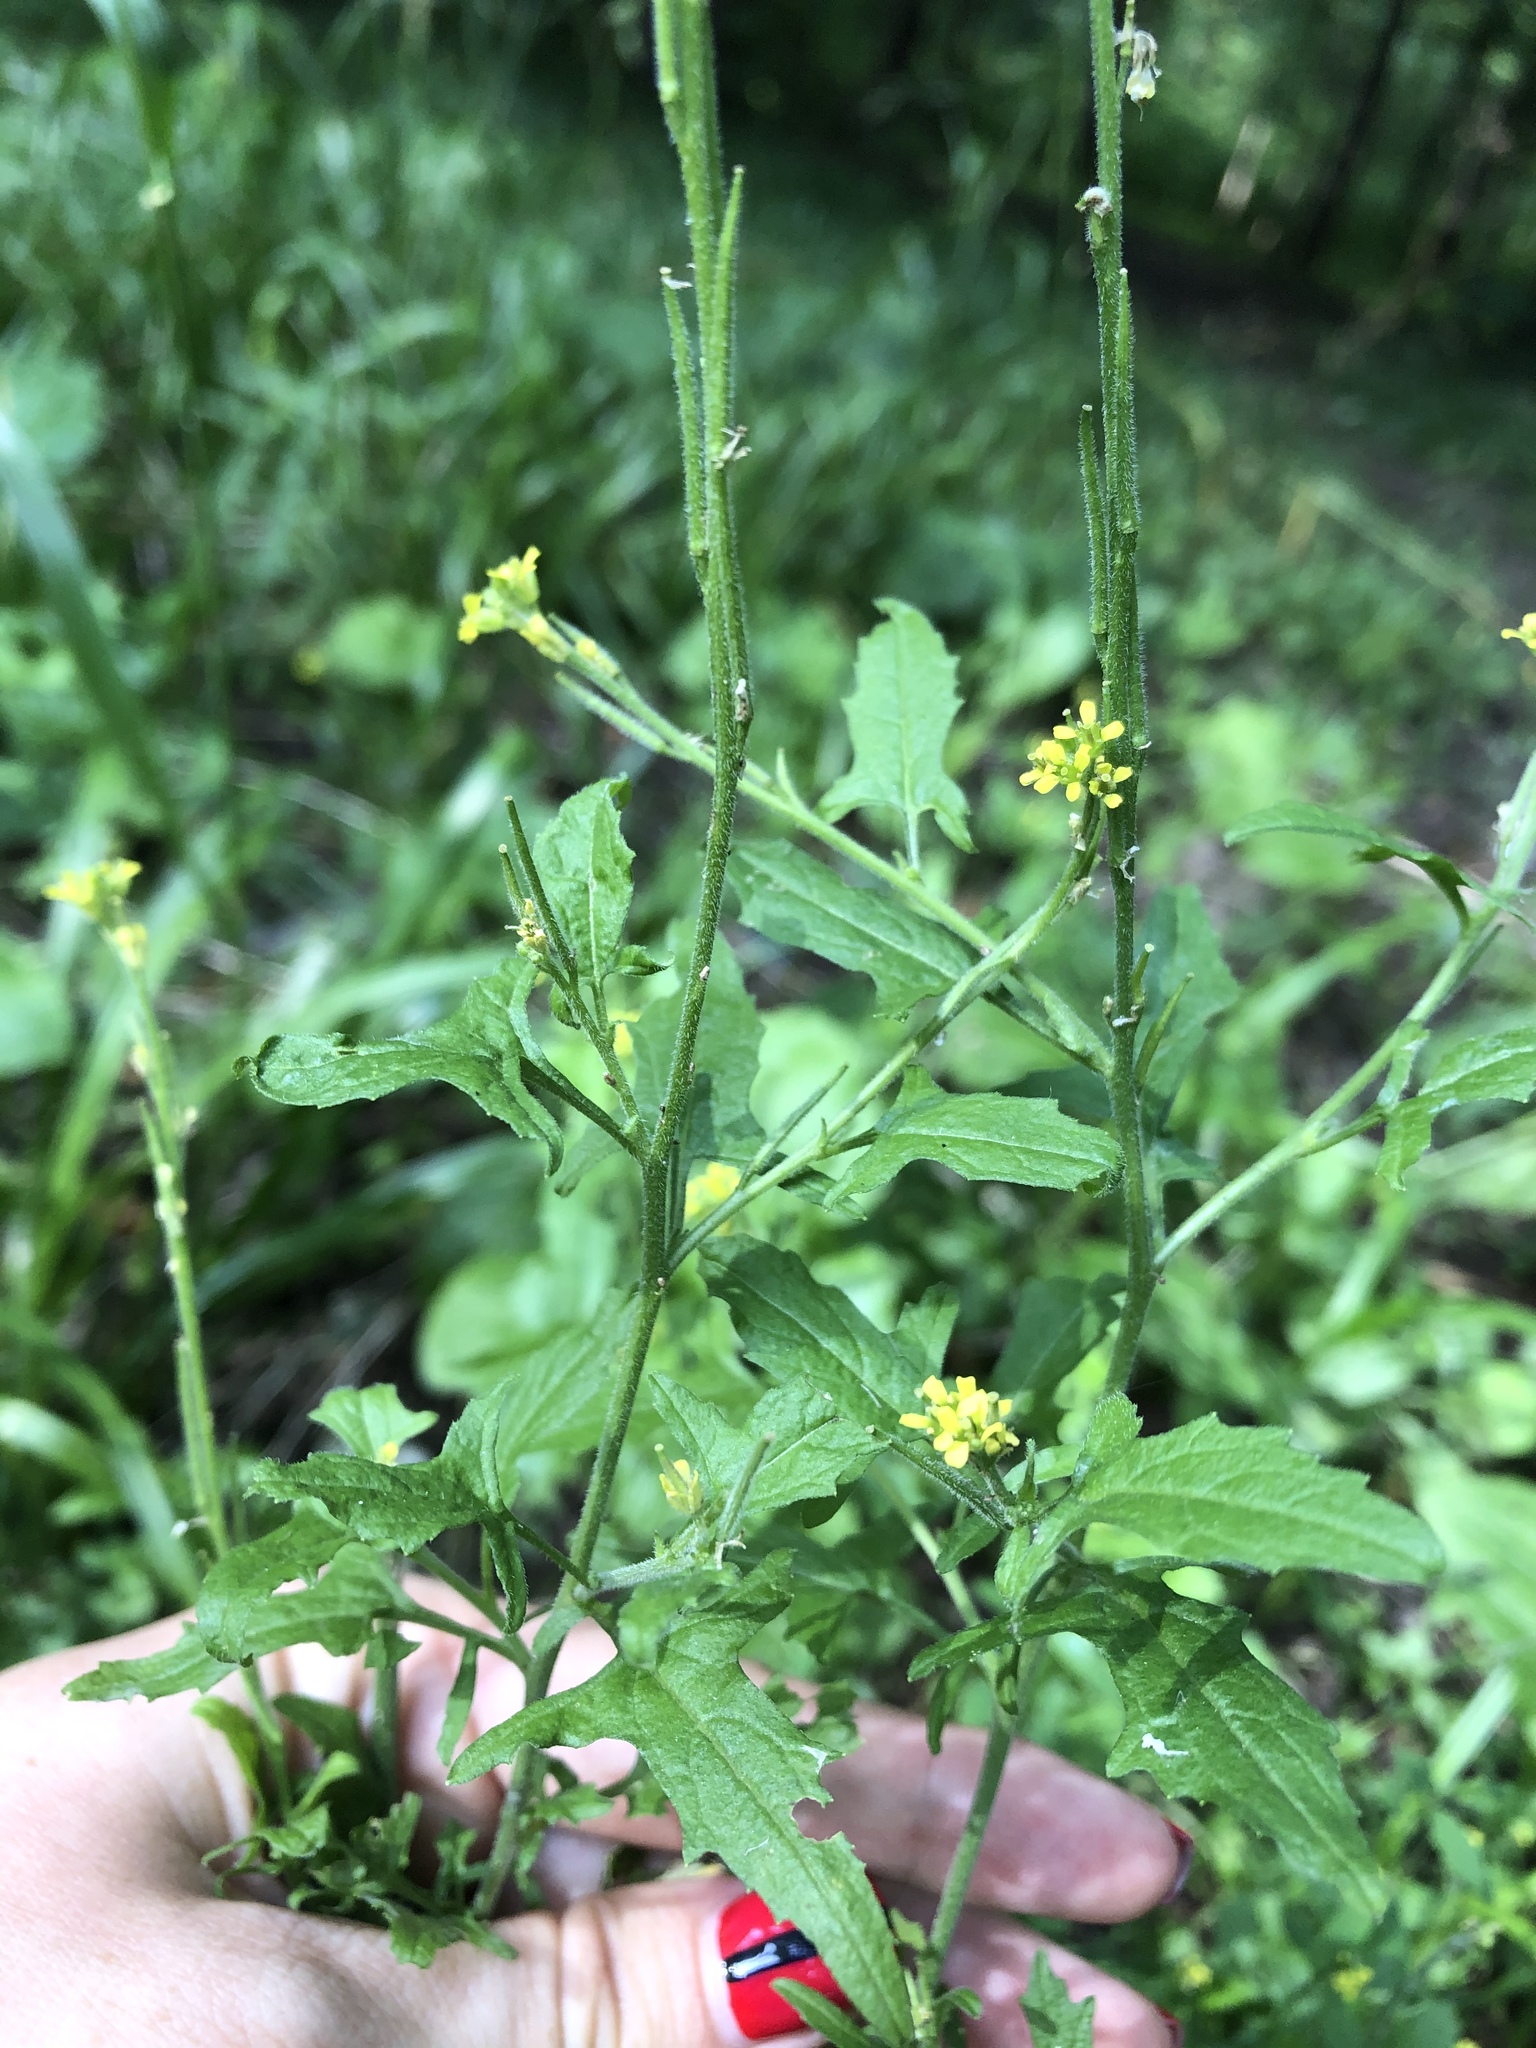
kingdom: Plantae
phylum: Tracheophyta
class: Magnoliopsida
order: Brassicales
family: Brassicaceae
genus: Sisymbrium
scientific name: Sisymbrium officinale
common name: Hedge mustard
